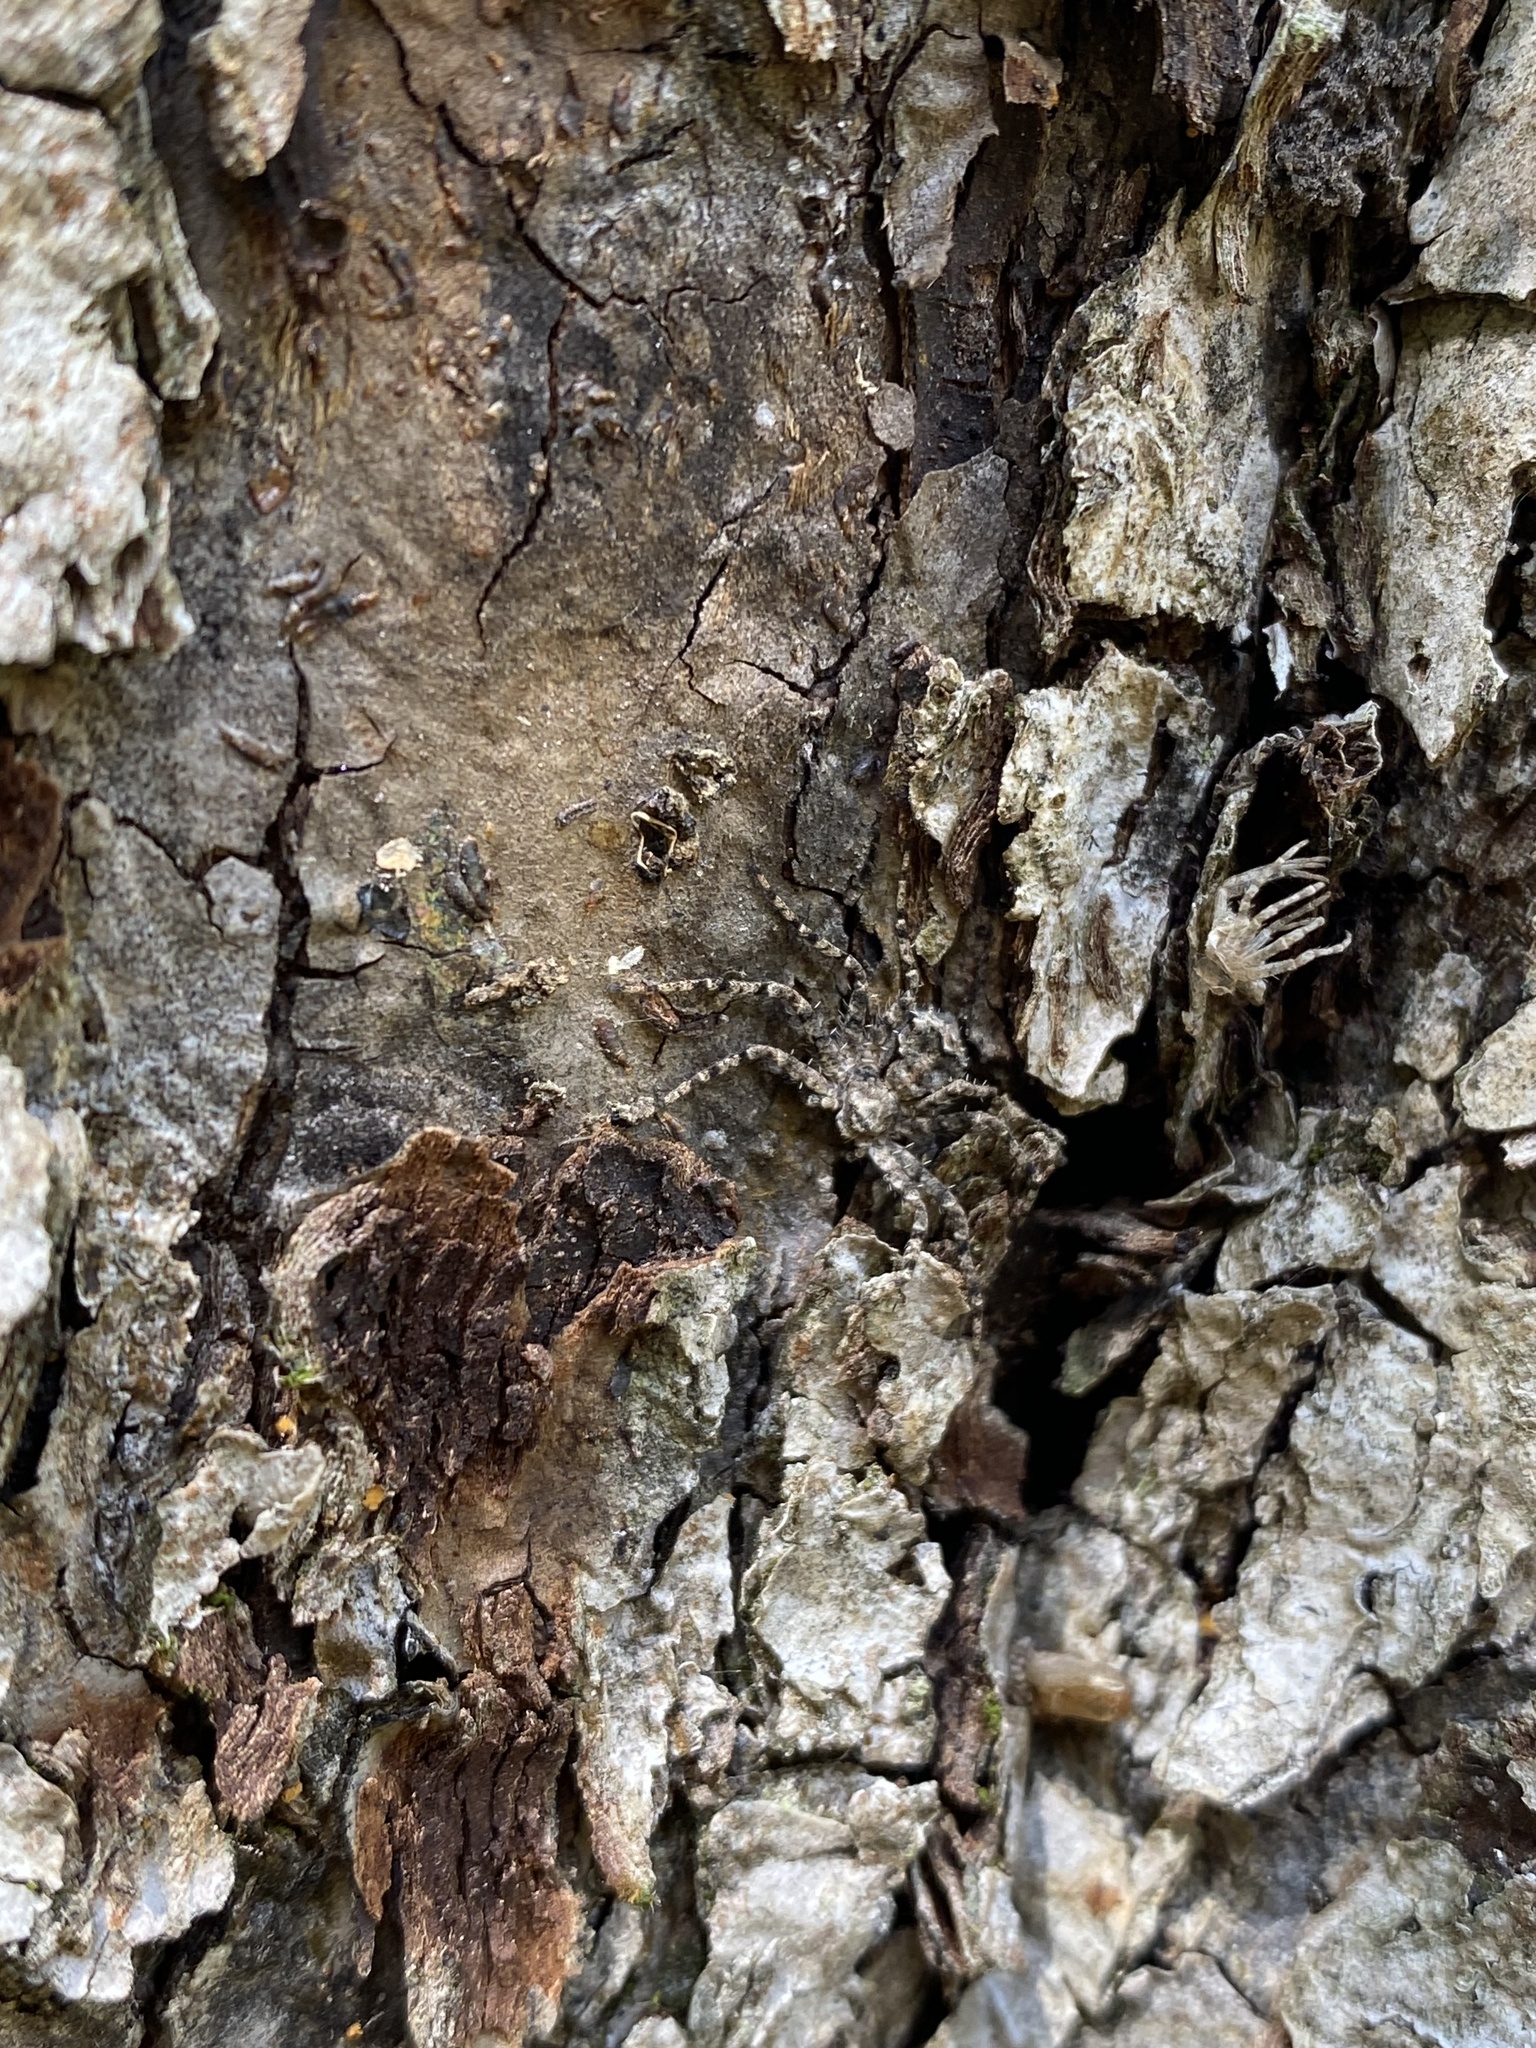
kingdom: Animalia
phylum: Arthropoda
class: Arachnida
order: Araneae
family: Philodromidae
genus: Philodromus
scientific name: Philodromus poecilus
